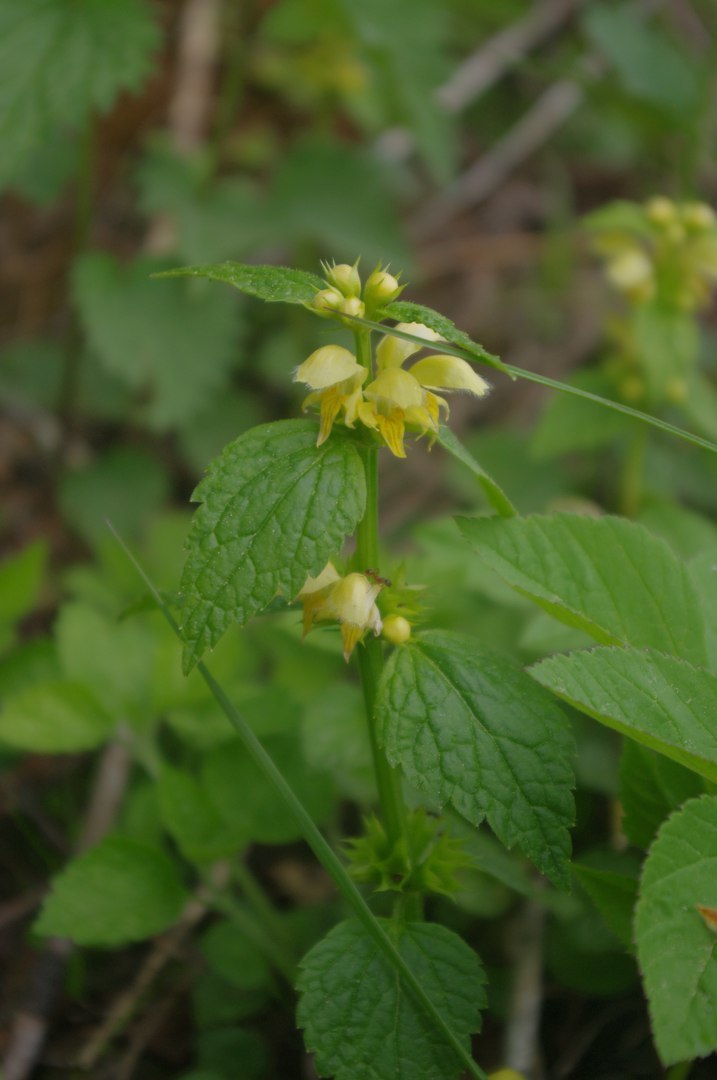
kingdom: Plantae
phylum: Tracheophyta
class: Magnoliopsida
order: Lamiales
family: Lamiaceae
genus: Lamium
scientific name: Lamium galeobdolon
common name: Yellow archangel
